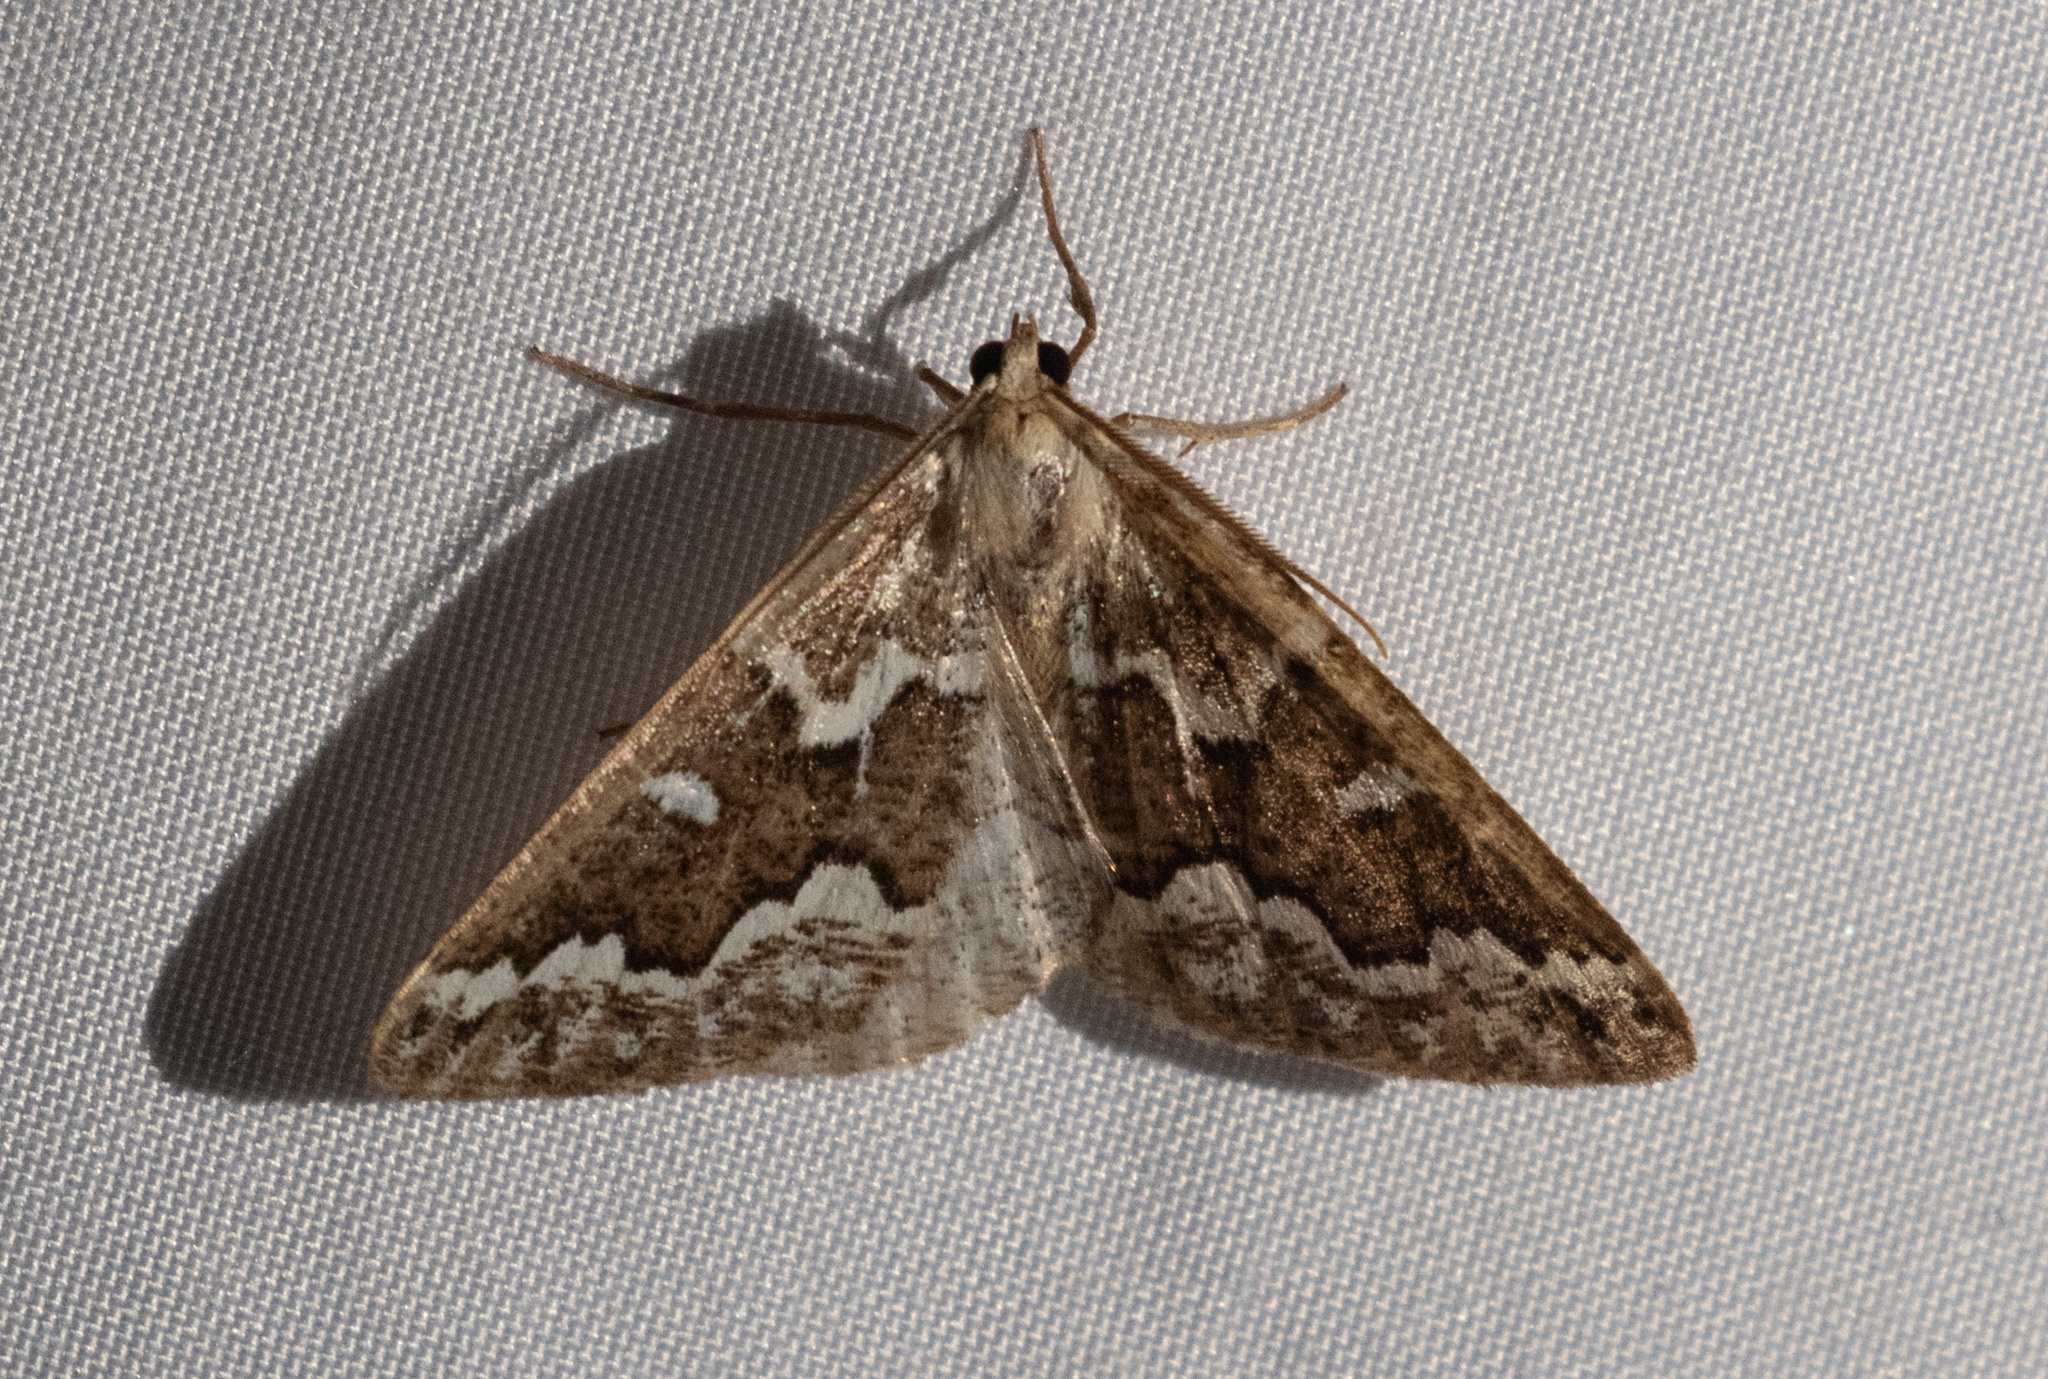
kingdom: Animalia
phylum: Arthropoda
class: Insecta
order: Lepidoptera
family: Geometridae
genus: Caripeta
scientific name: Caripeta divisata
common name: Gray spruce looper
